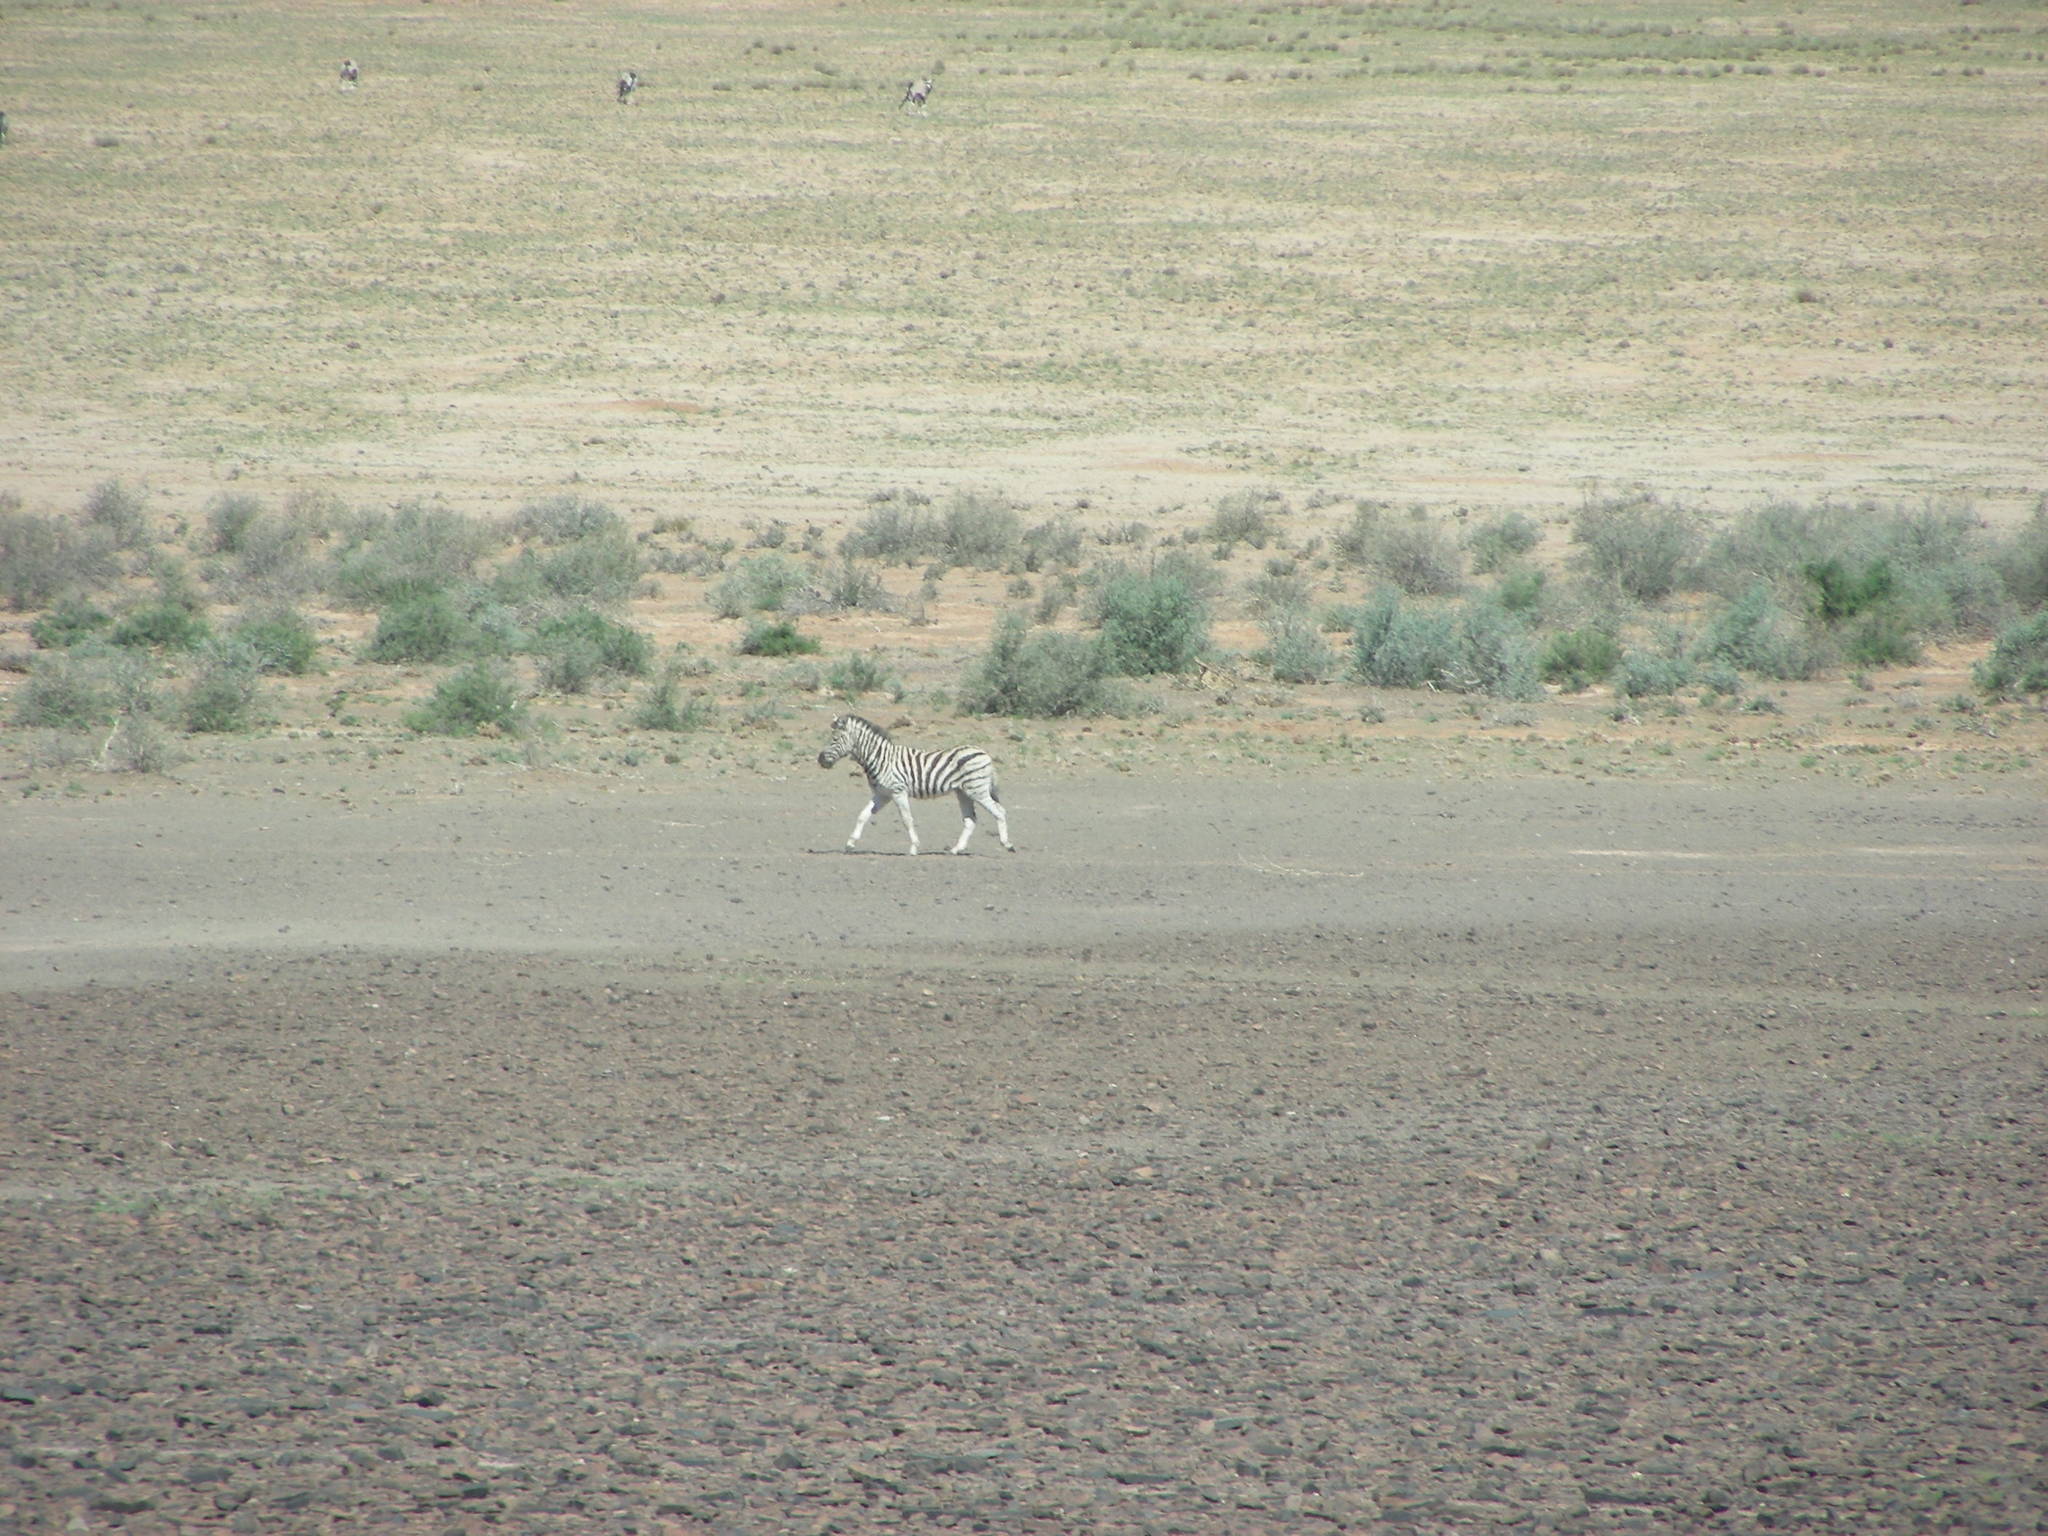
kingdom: Animalia
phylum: Chordata
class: Mammalia
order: Perissodactyla
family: Equidae
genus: Equus
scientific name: Equus quagga
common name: Plains zebra
